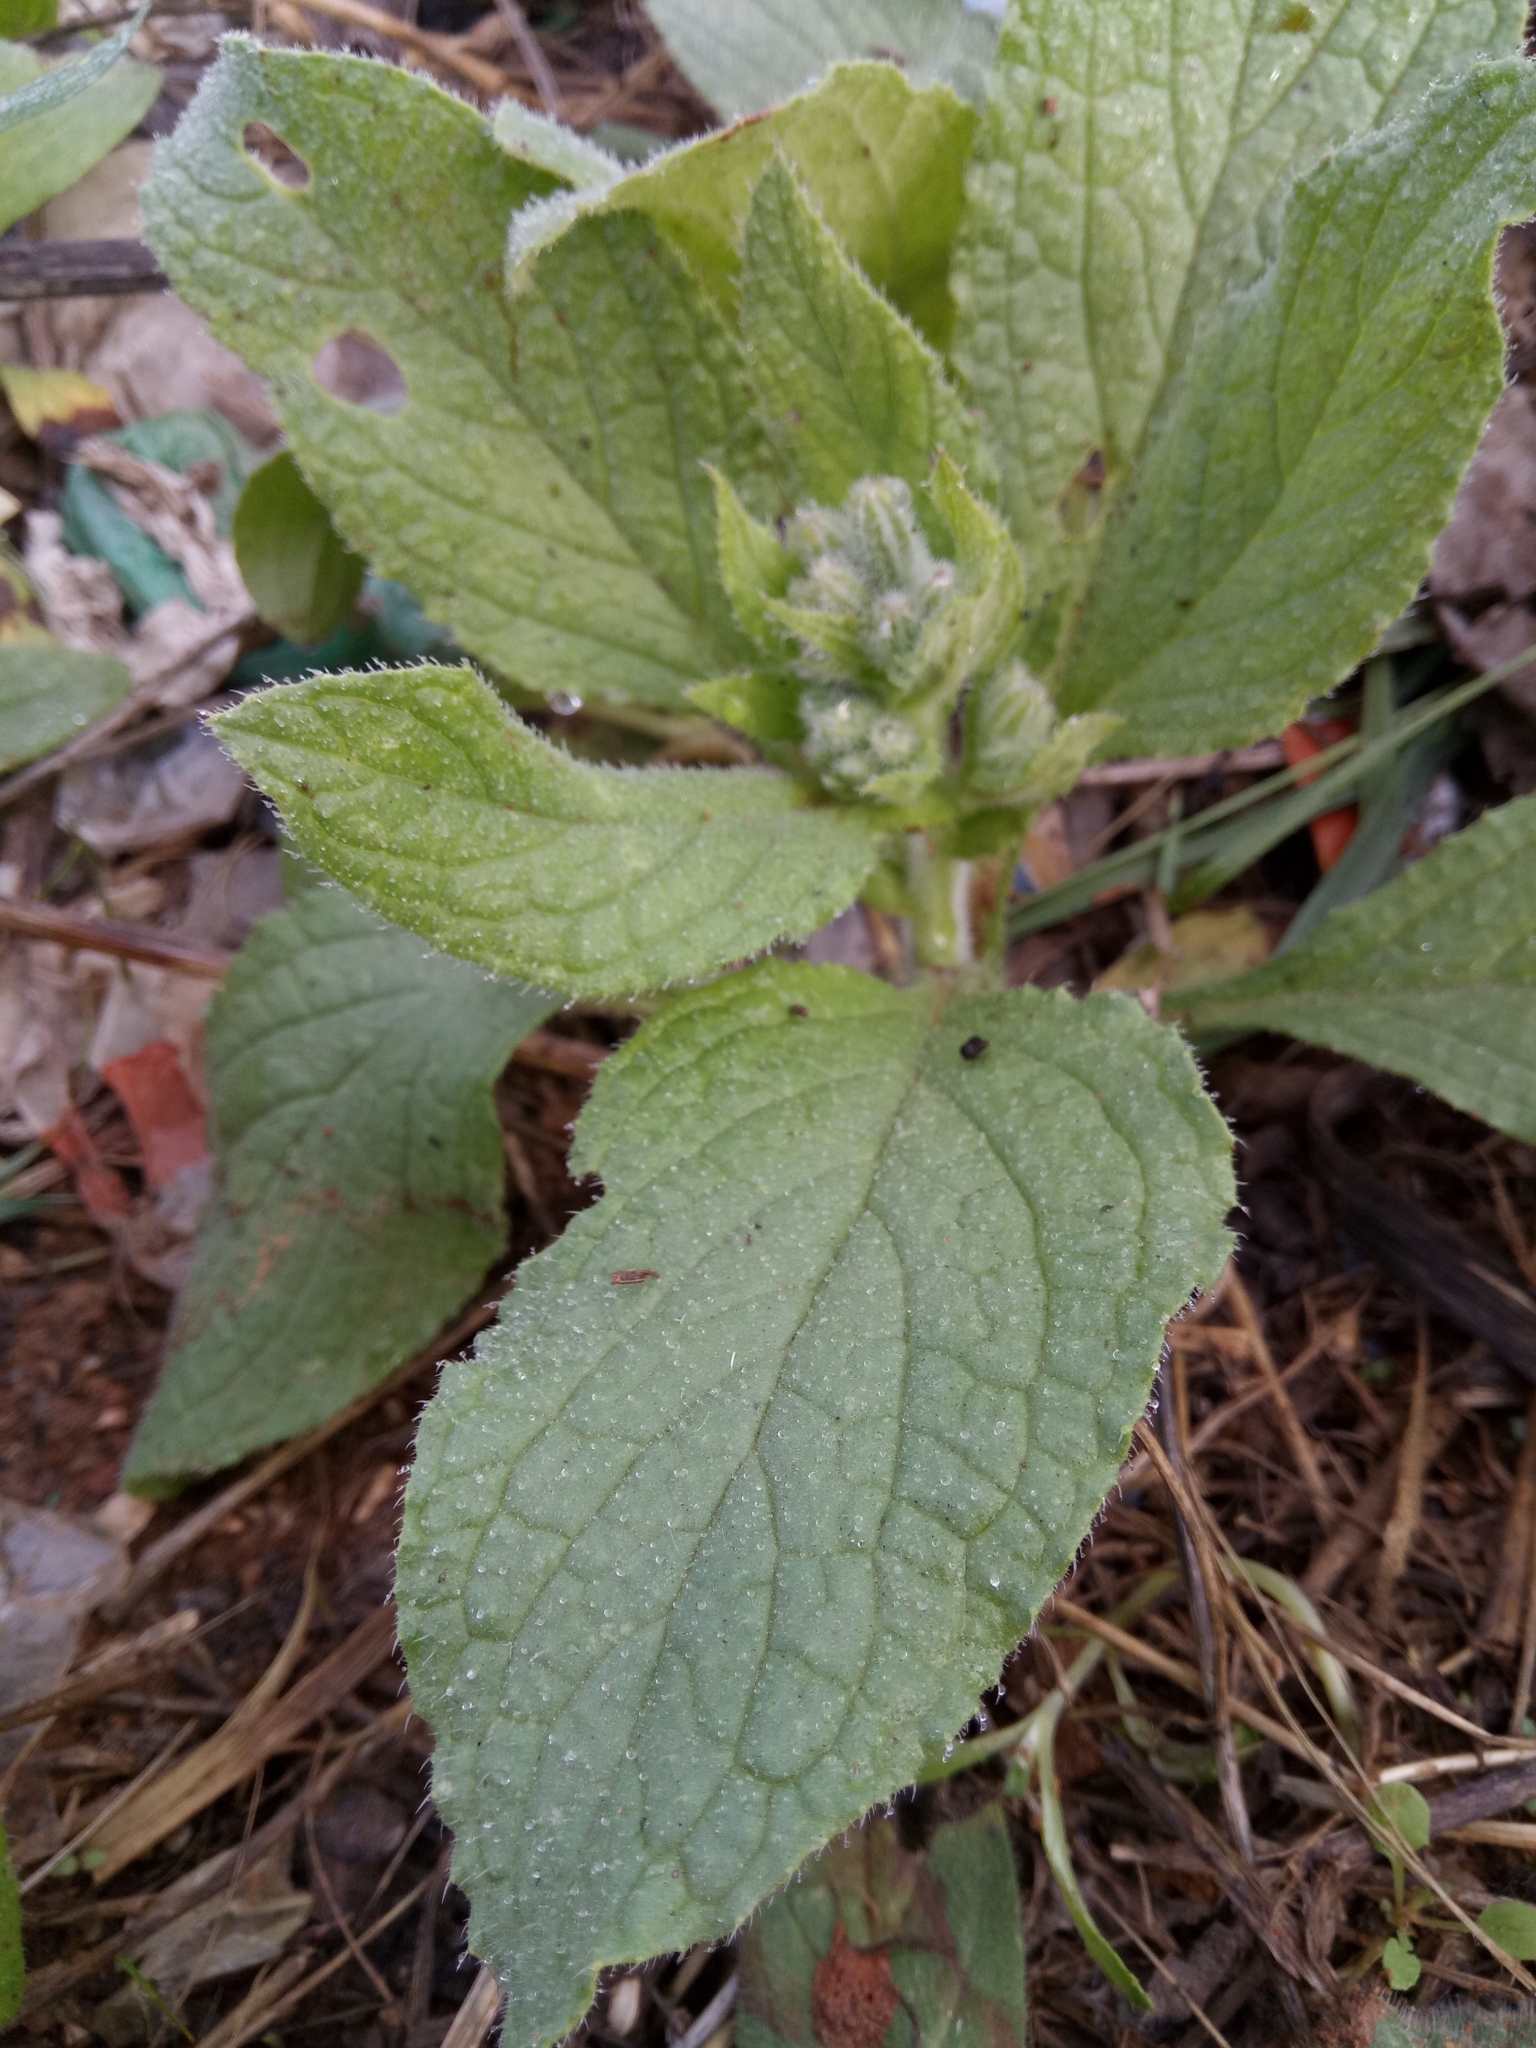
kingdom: Plantae
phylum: Tracheophyta
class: Magnoliopsida
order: Boraginales
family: Boraginaceae
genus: Borago
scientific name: Borago officinalis
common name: Borage
